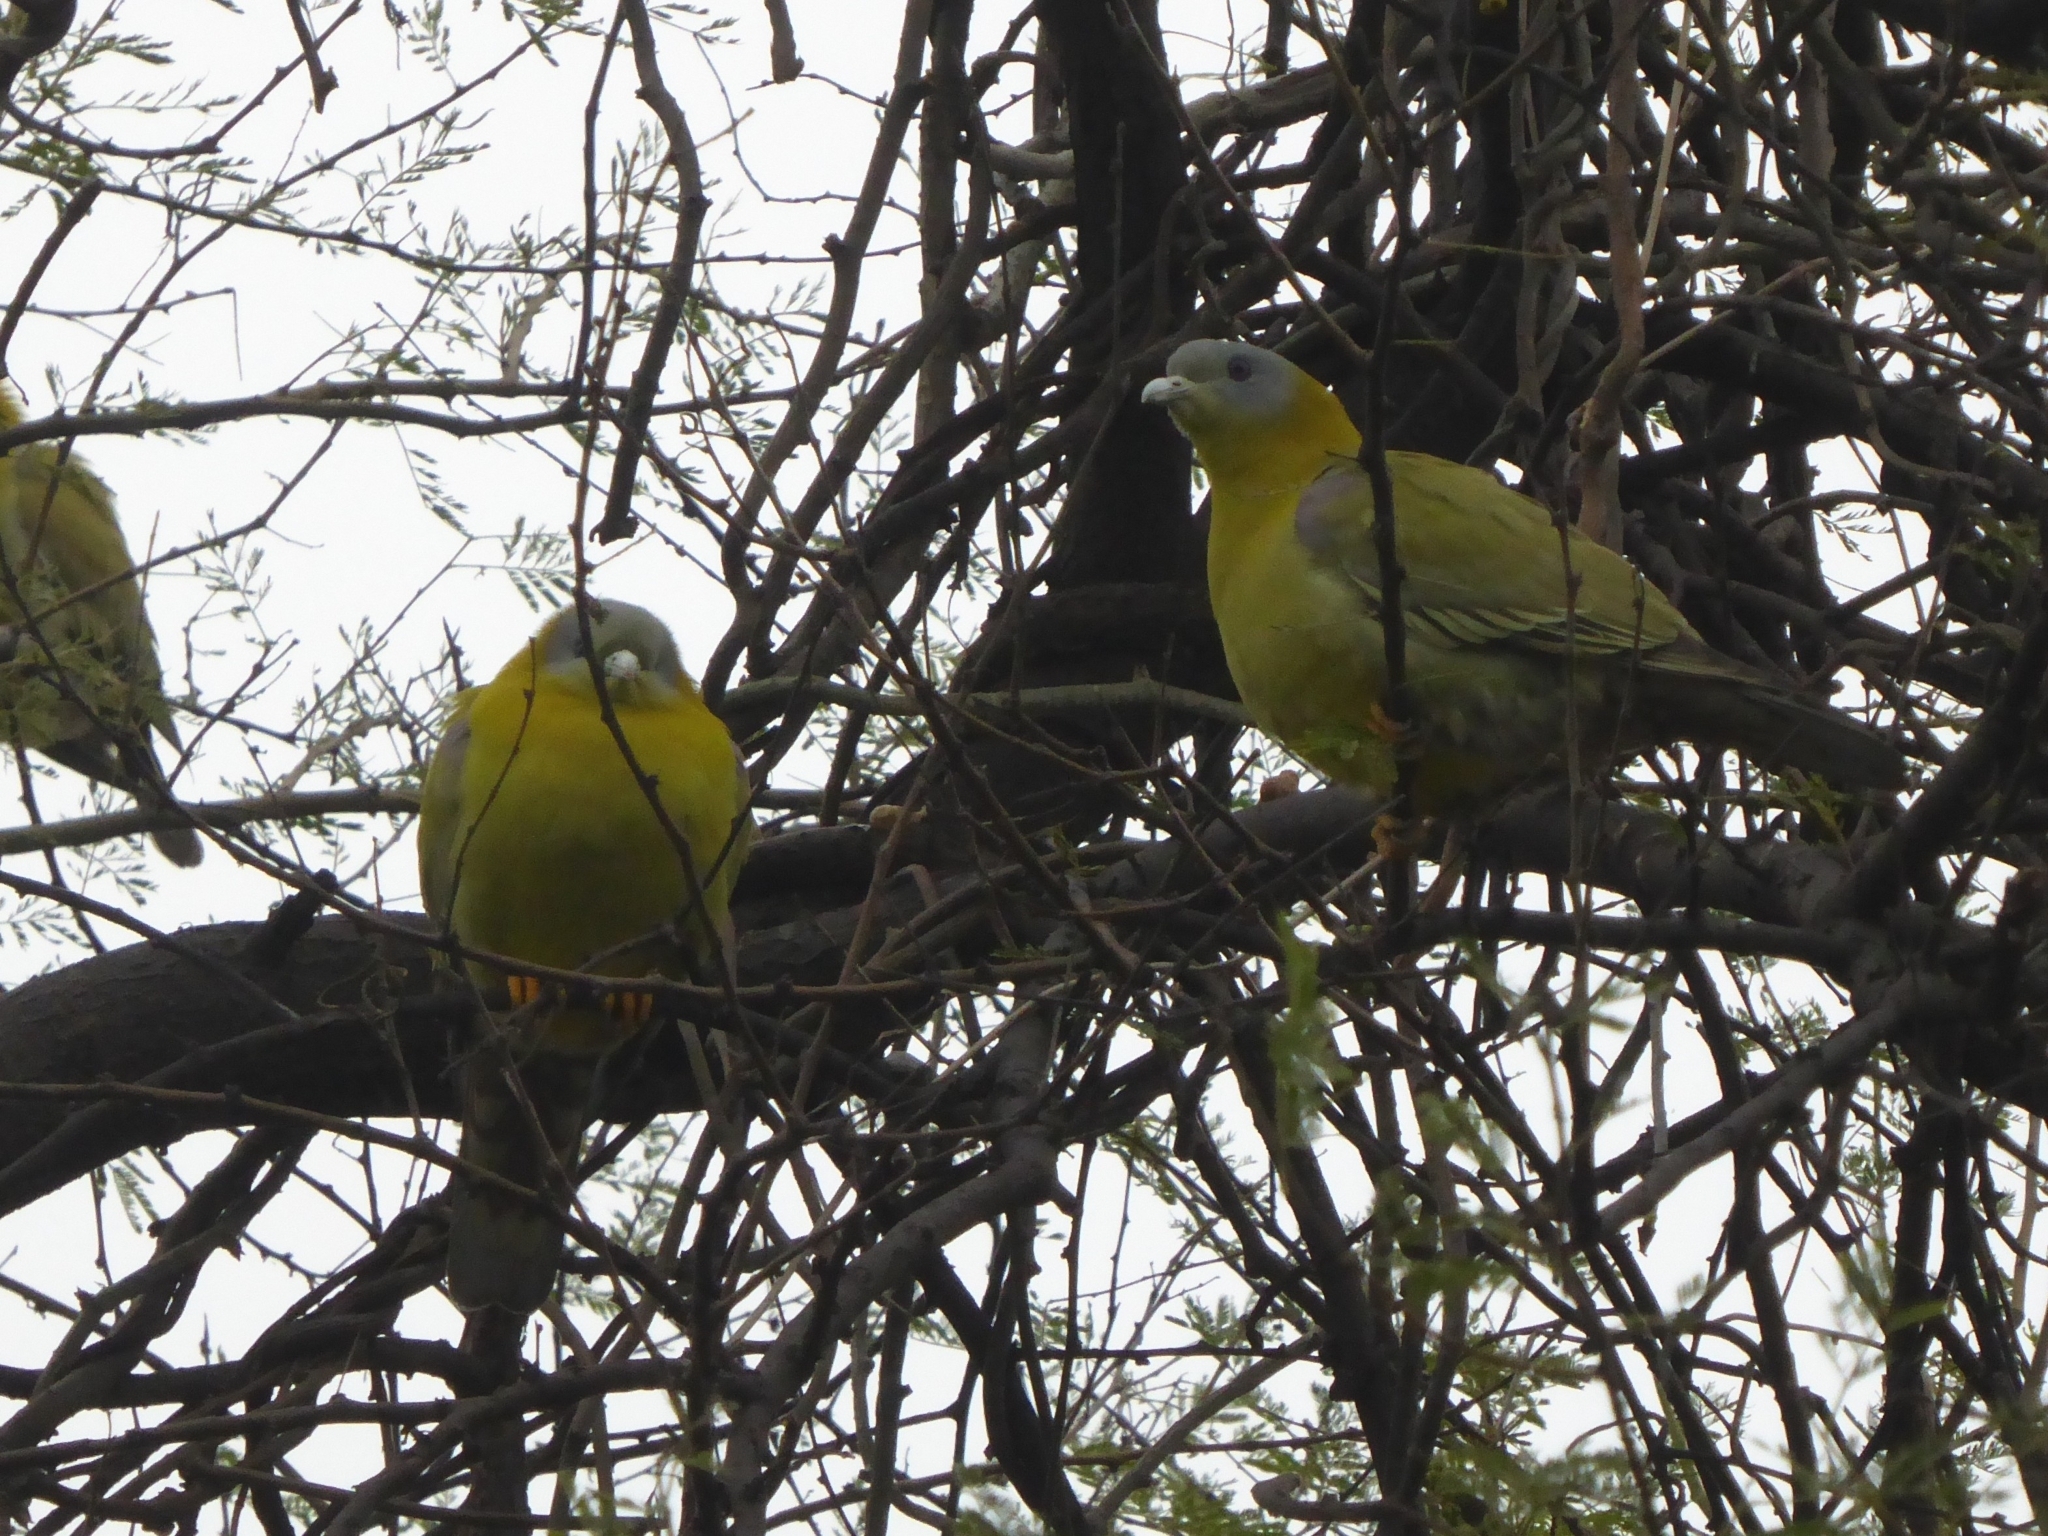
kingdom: Animalia
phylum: Chordata
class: Aves
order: Columbiformes
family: Columbidae
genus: Treron
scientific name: Treron phoenicopterus
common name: Yellow-footed green pigeon
